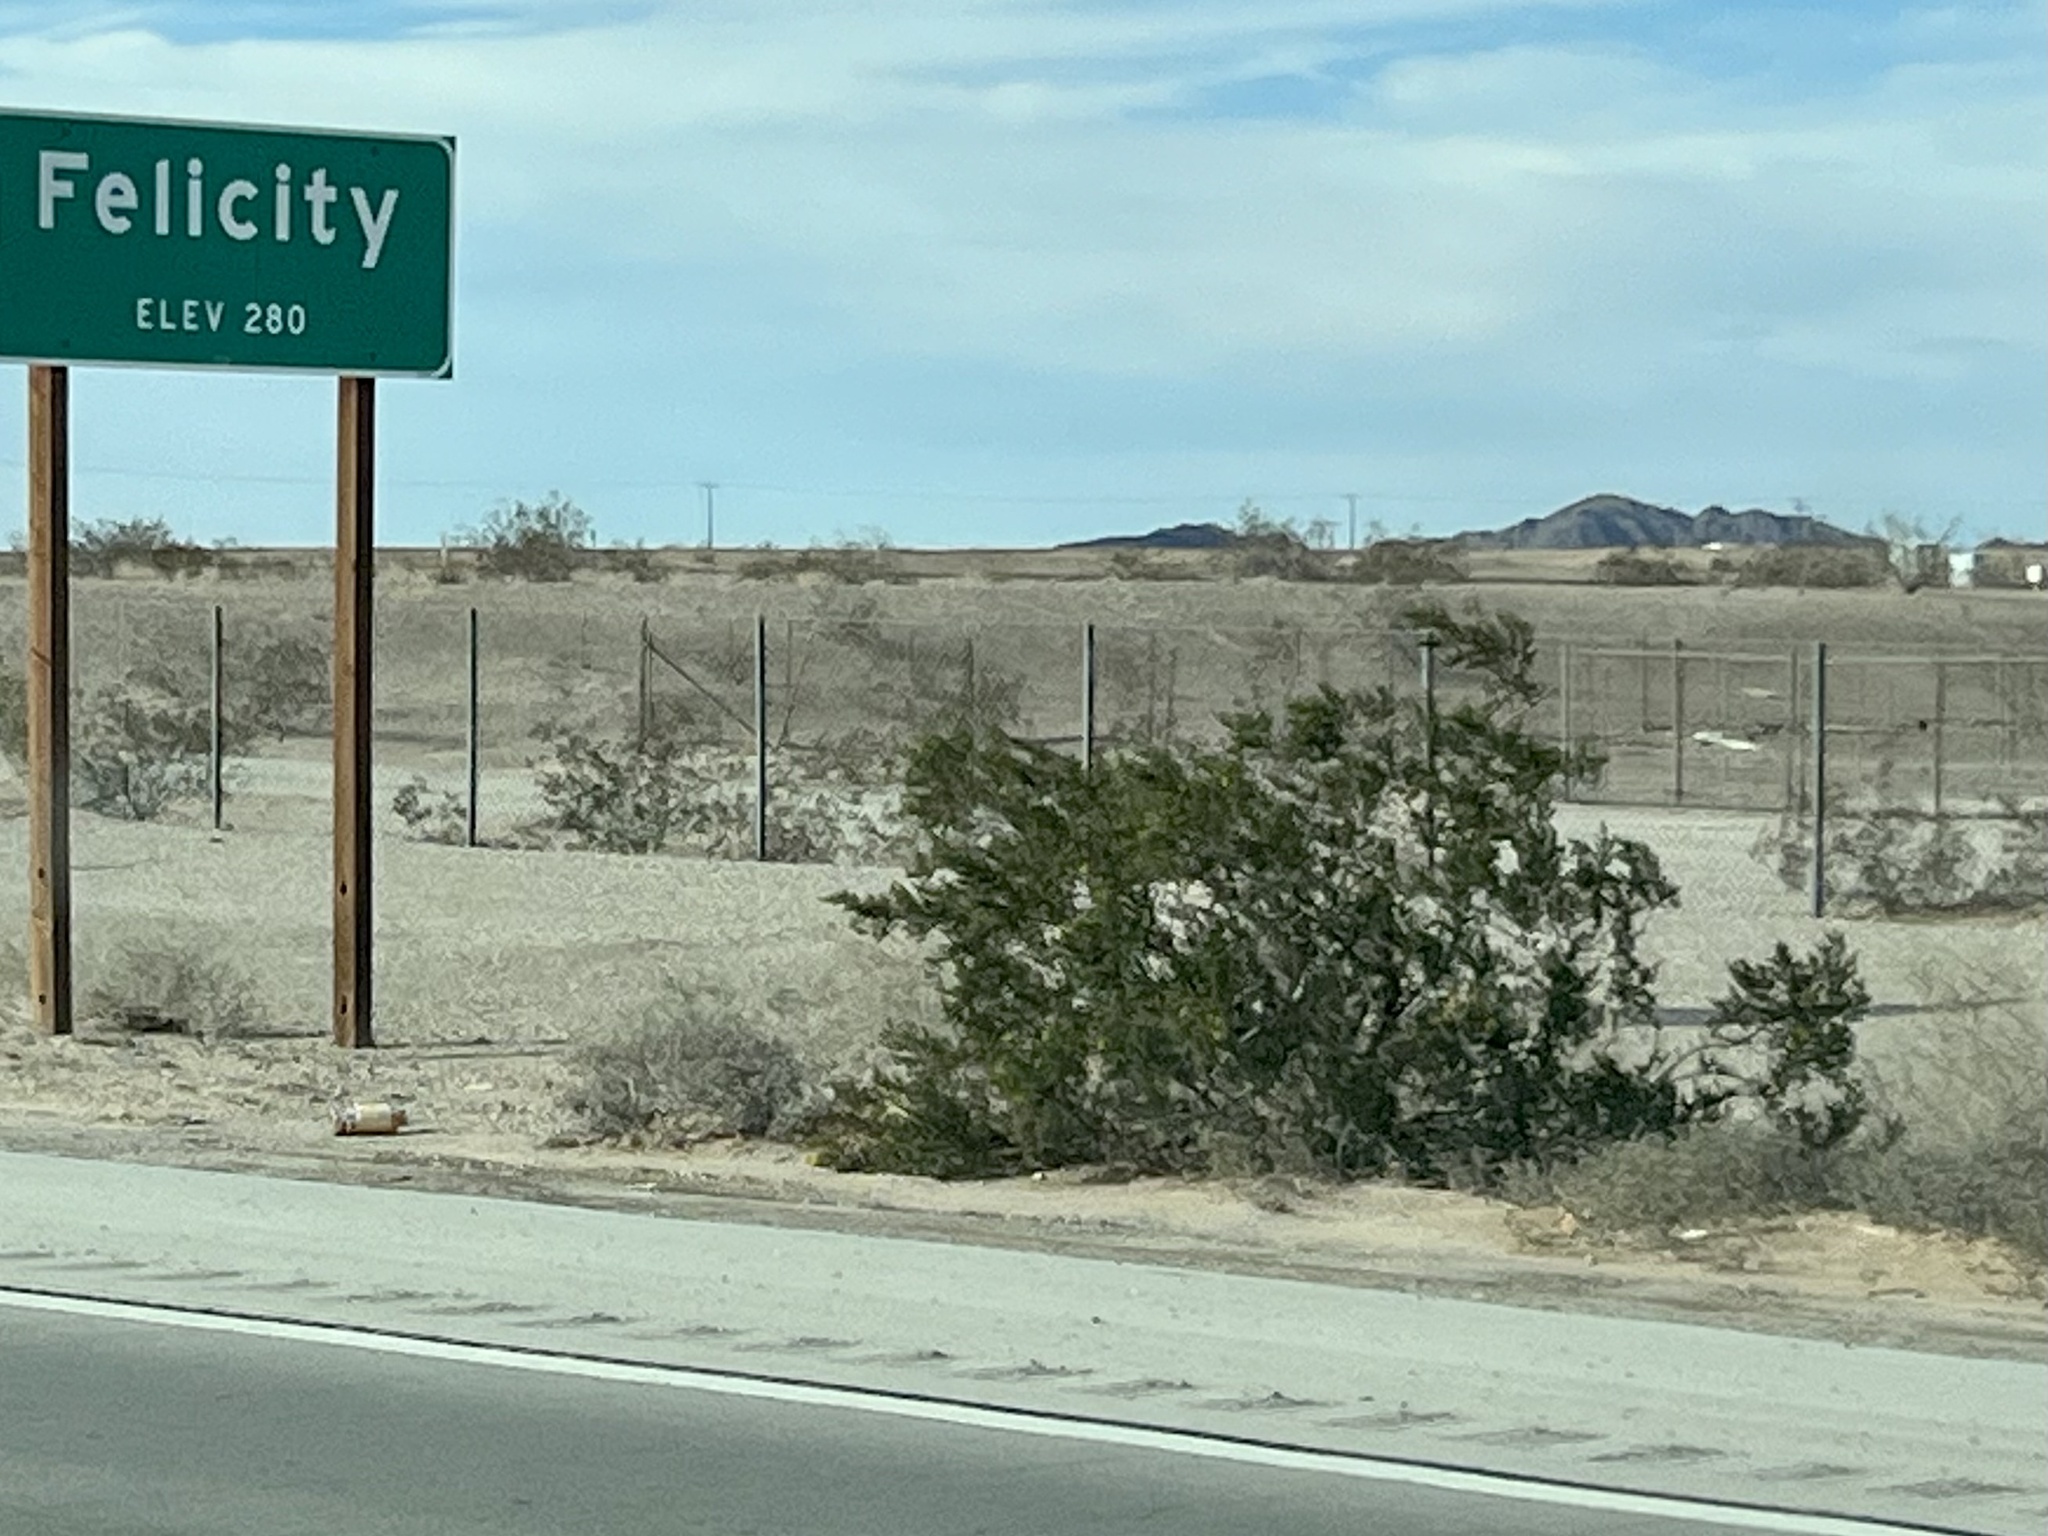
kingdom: Plantae
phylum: Tracheophyta
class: Magnoliopsida
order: Zygophyllales
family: Zygophyllaceae
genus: Larrea
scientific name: Larrea tridentata
